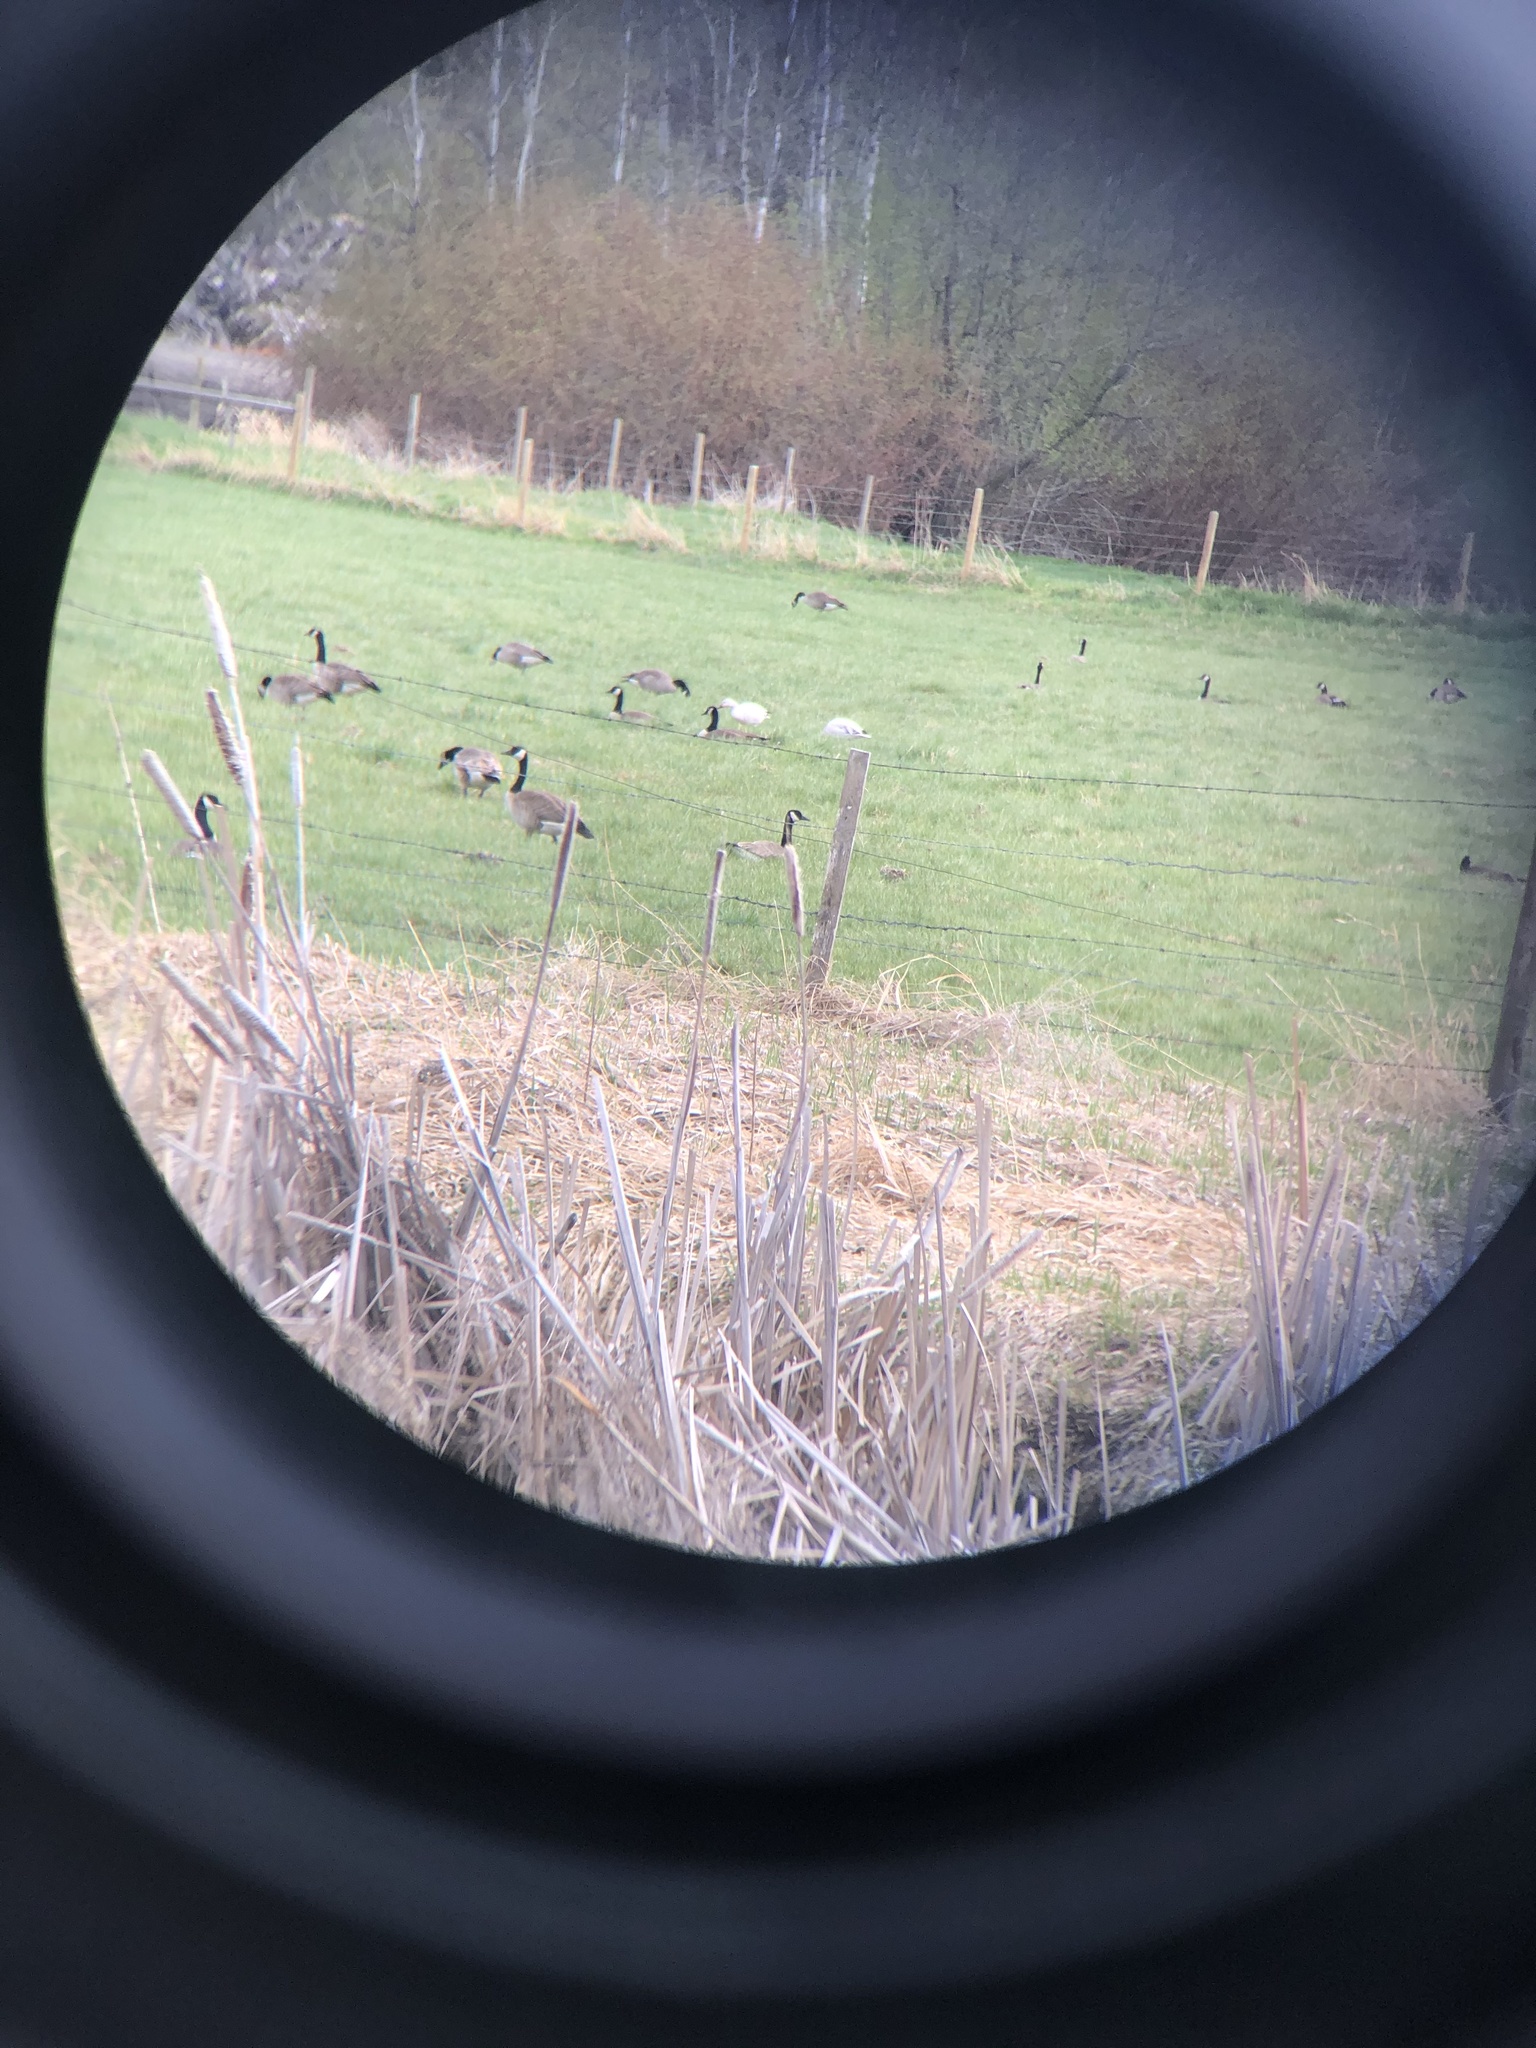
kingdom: Animalia
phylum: Chordata
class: Aves
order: Anseriformes
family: Anatidae
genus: Anser
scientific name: Anser caerulescens
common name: Snow goose
